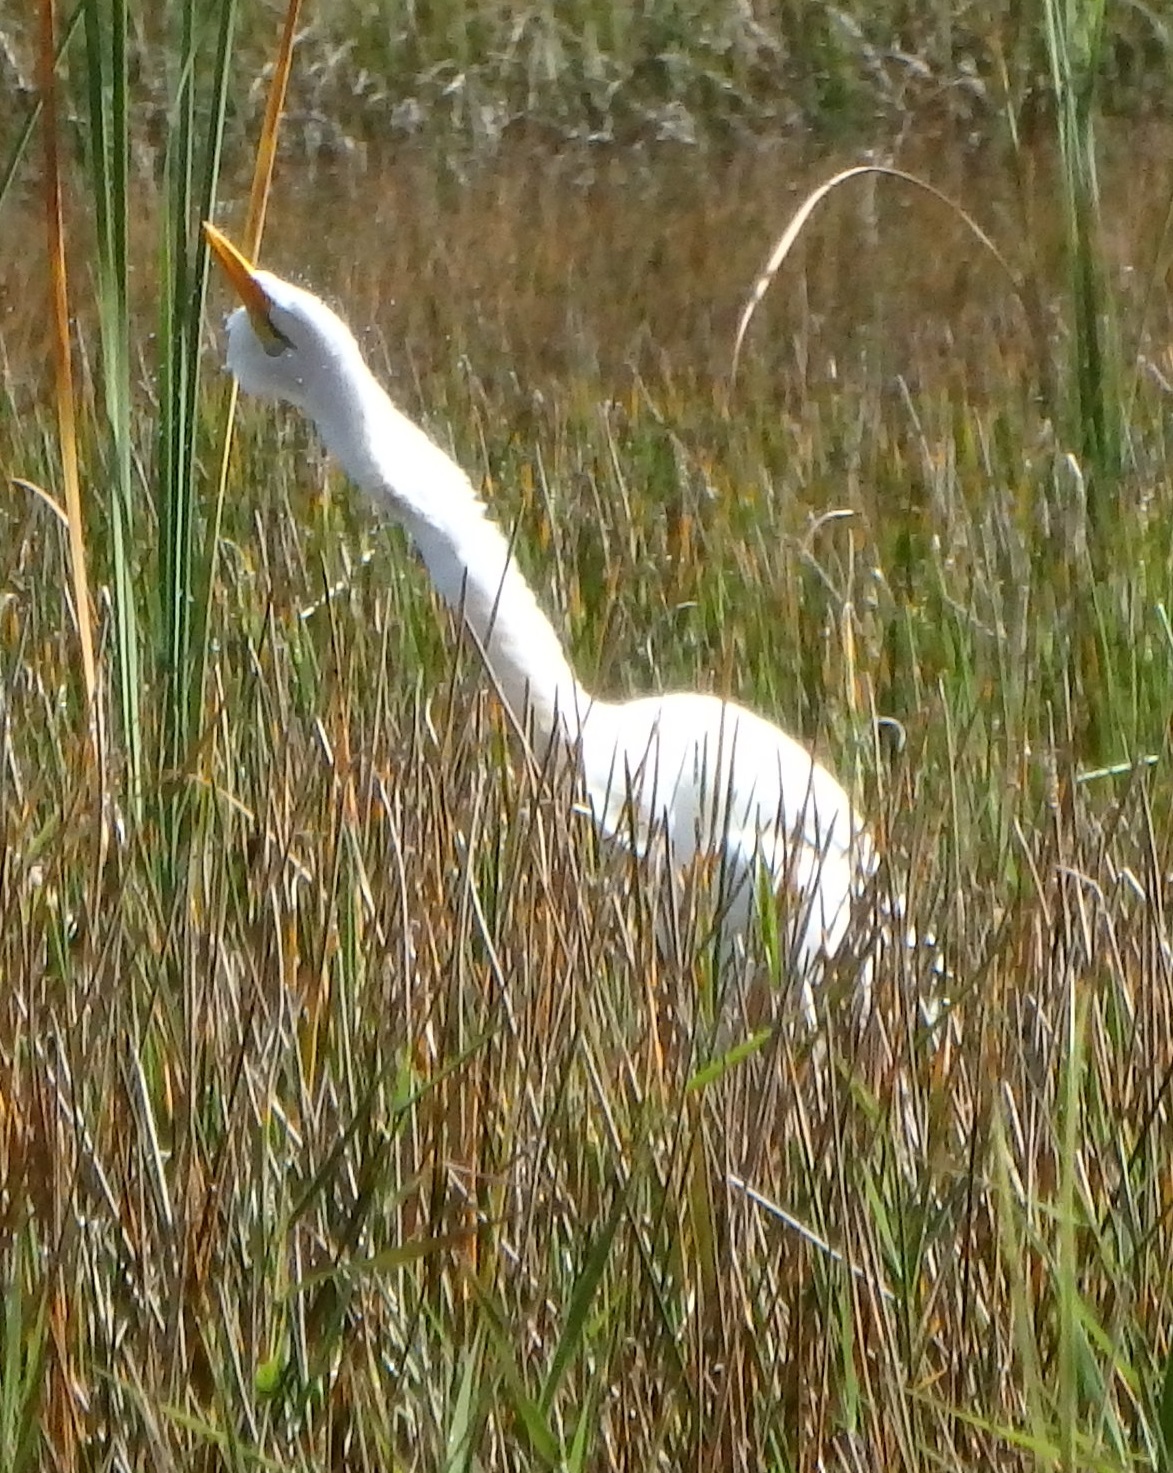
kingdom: Animalia
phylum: Chordata
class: Aves
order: Pelecaniformes
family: Ardeidae
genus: Ardea
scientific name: Ardea alba
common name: Great egret
